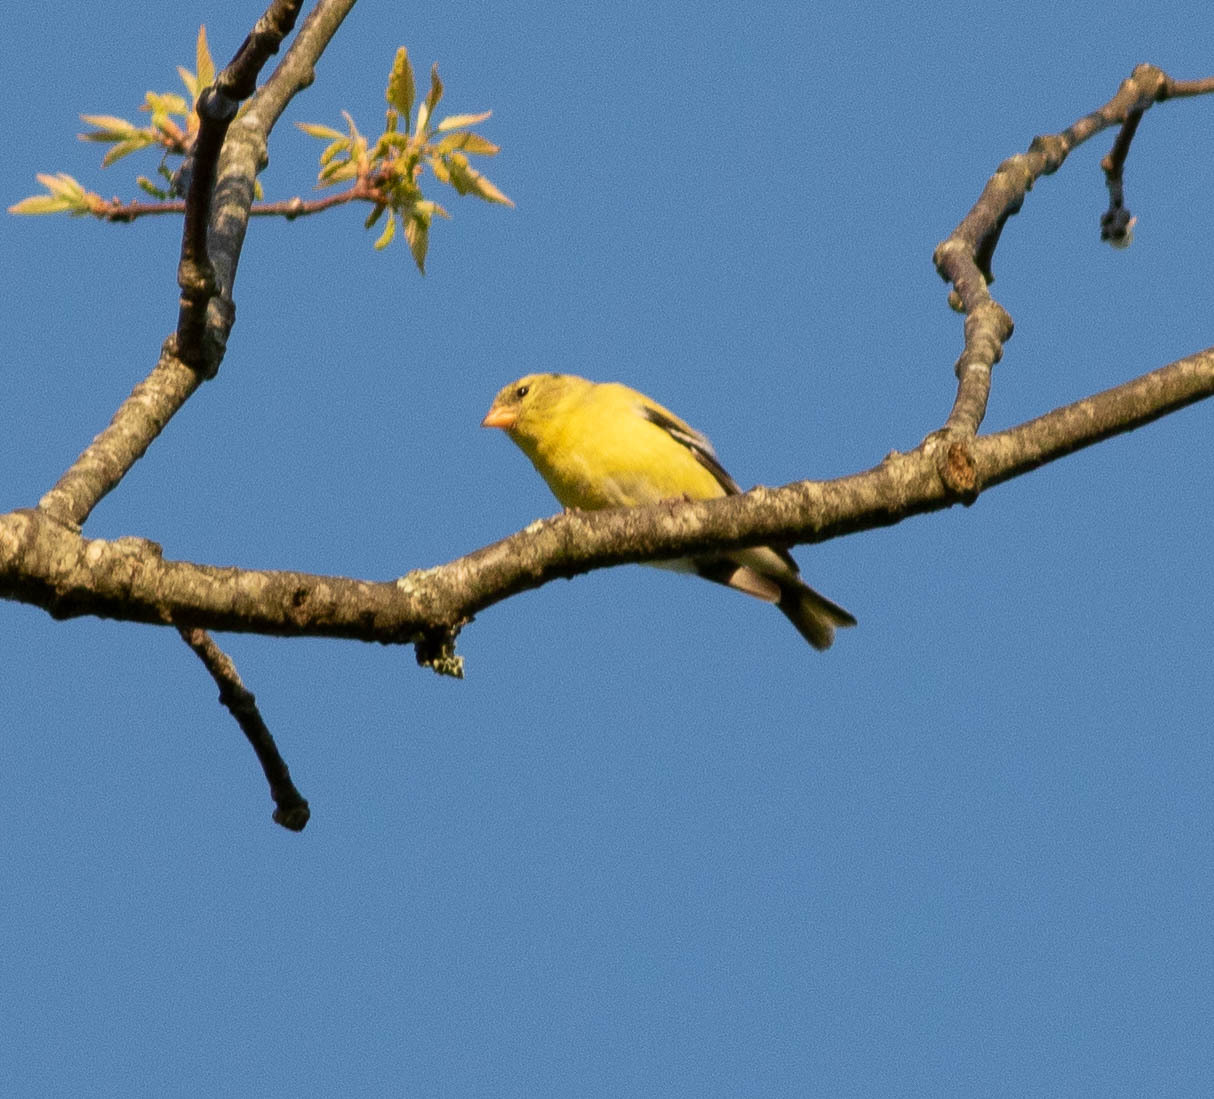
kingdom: Animalia
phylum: Chordata
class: Aves
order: Passeriformes
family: Fringillidae
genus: Spinus
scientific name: Spinus tristis
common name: American goldfinch
